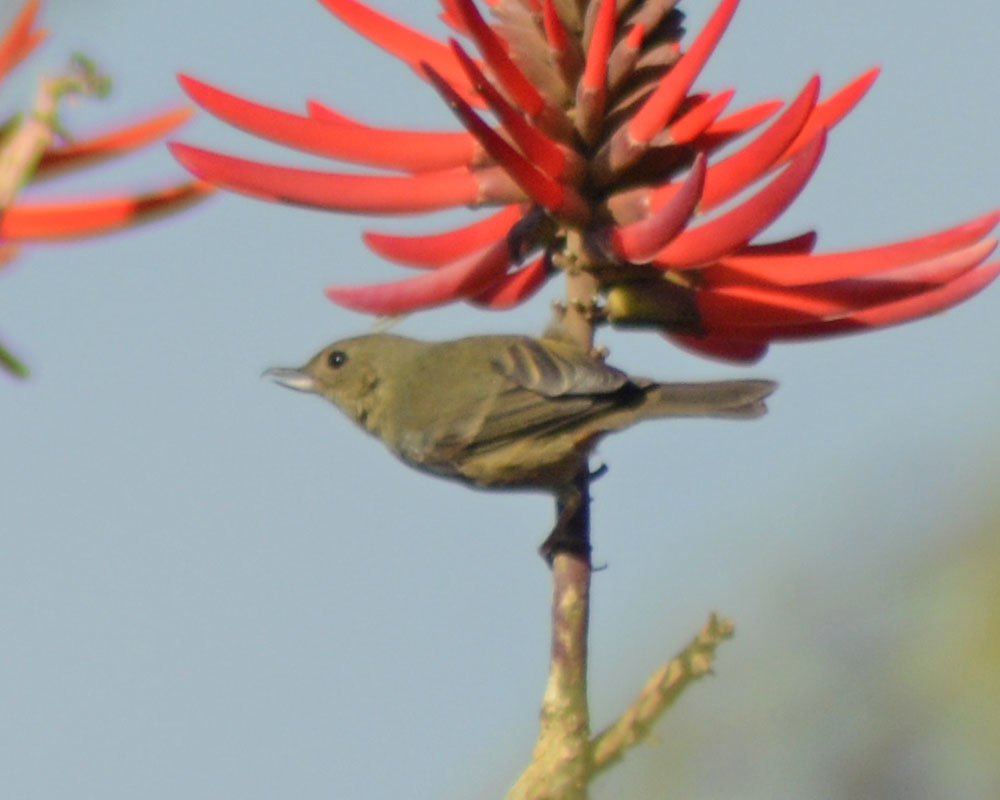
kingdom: Animalia
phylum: Chordata
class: Aves
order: Passeriformes
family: Thraupidae
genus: Diglossa
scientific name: Diglossa baritula
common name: Cinnamon-bellied flowerpiercer
